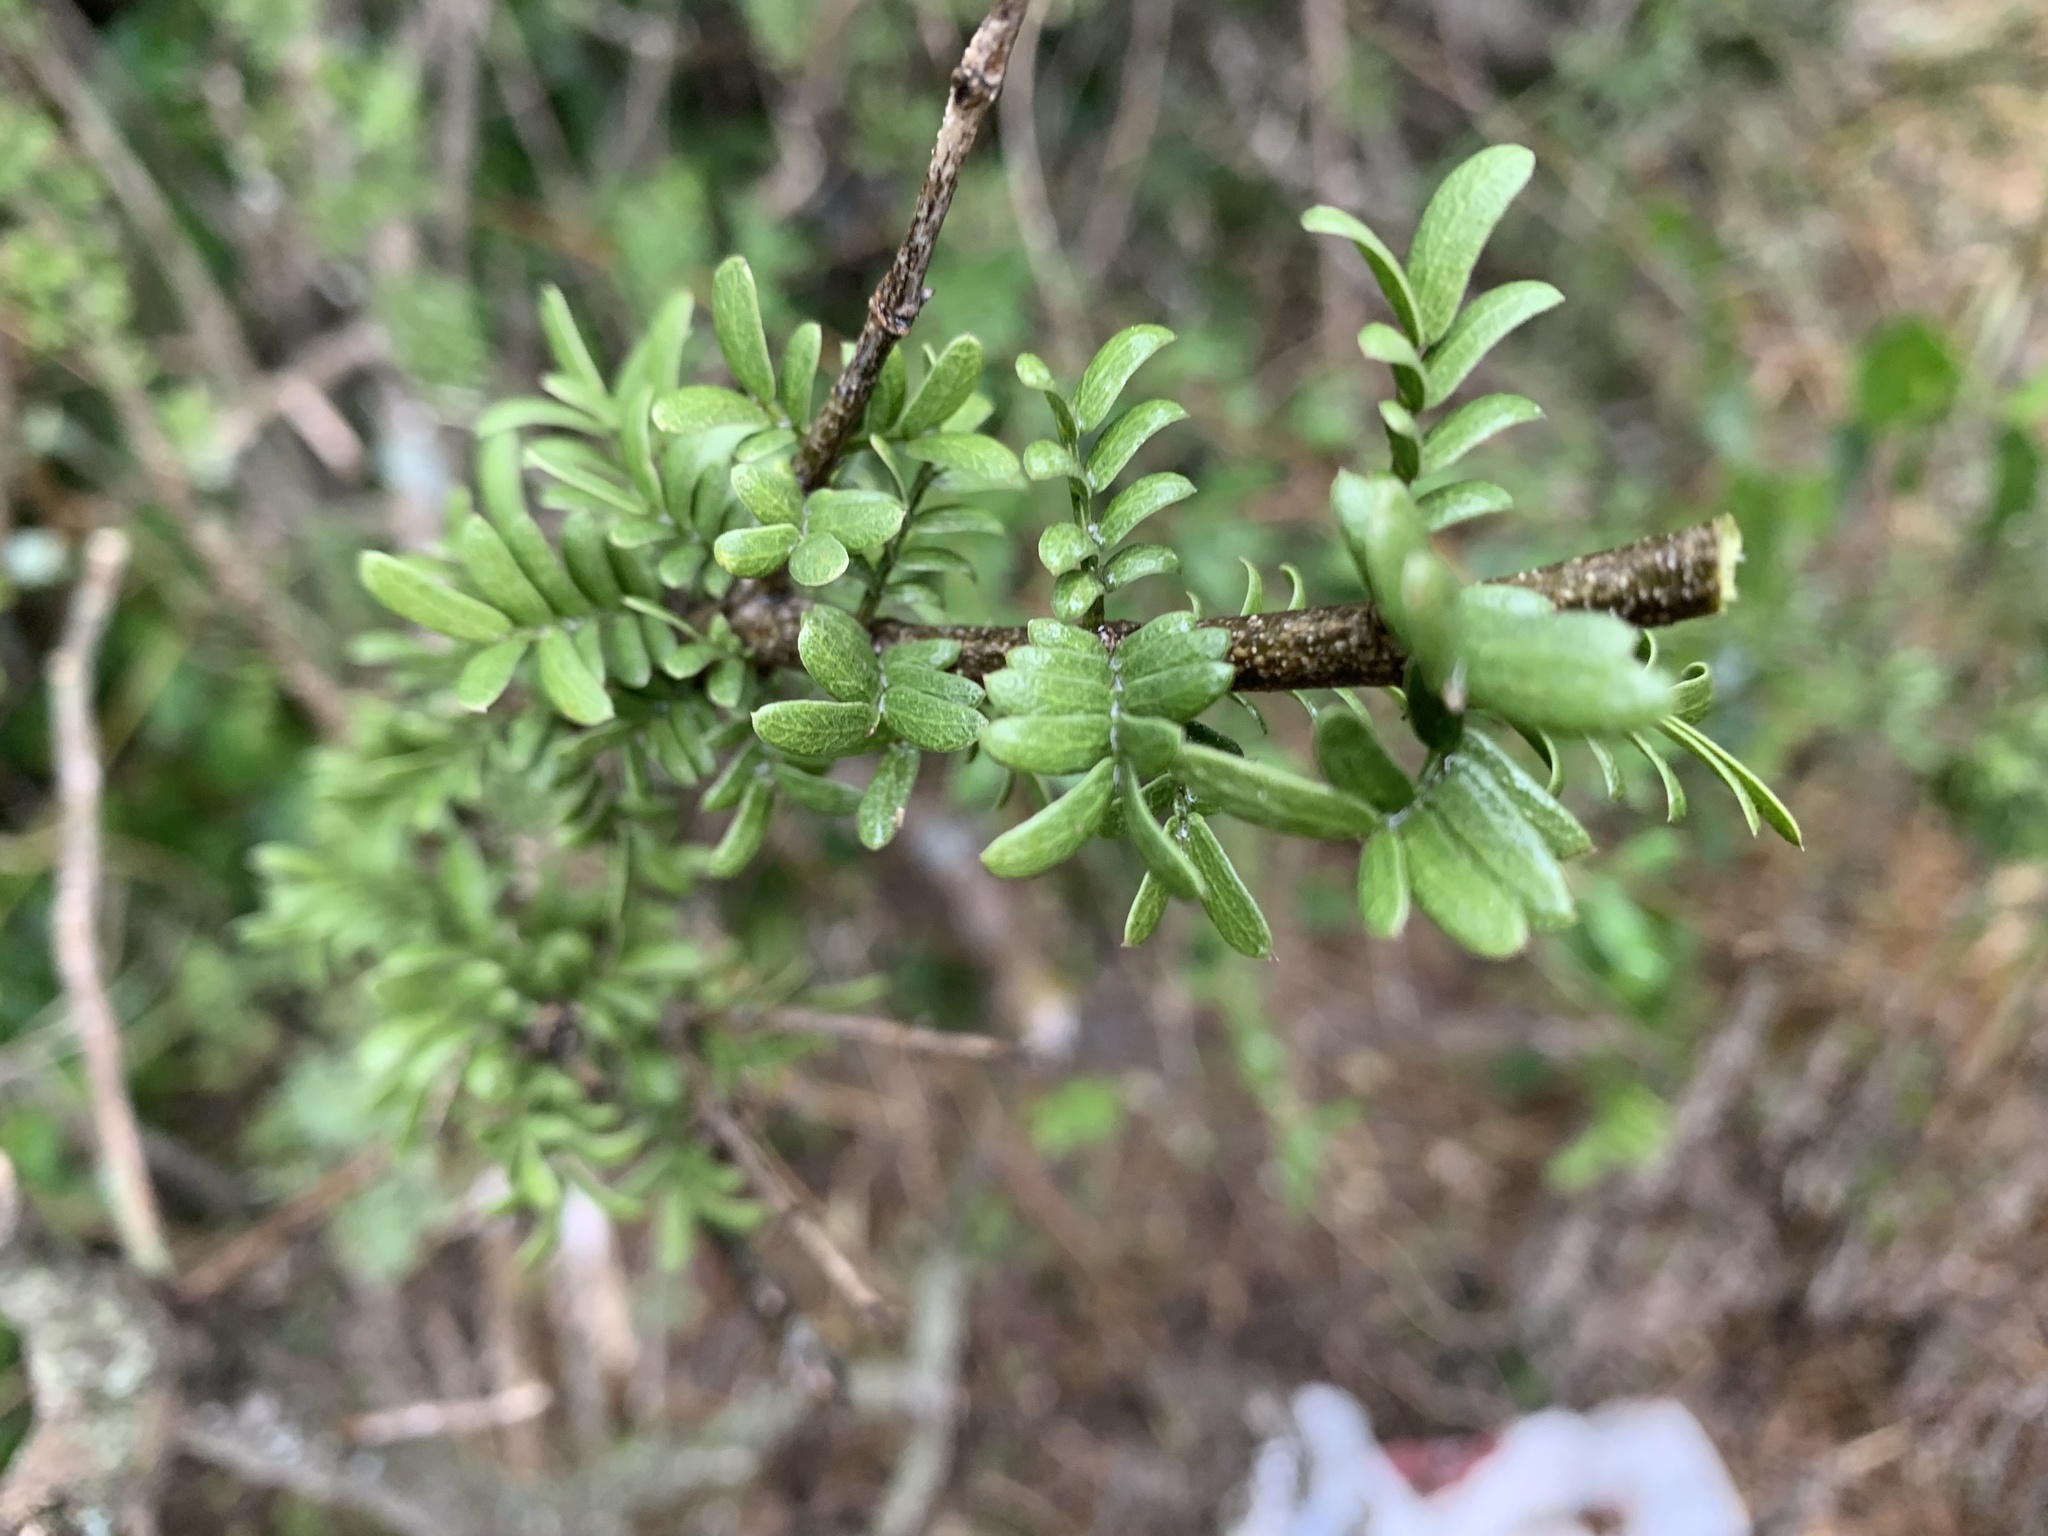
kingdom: Plantae
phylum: Tracheophyta
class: Magnoliopsida
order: Zygophyllales
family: Zygophyllaceae
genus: Porlieria
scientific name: Porlieria angustifolia
